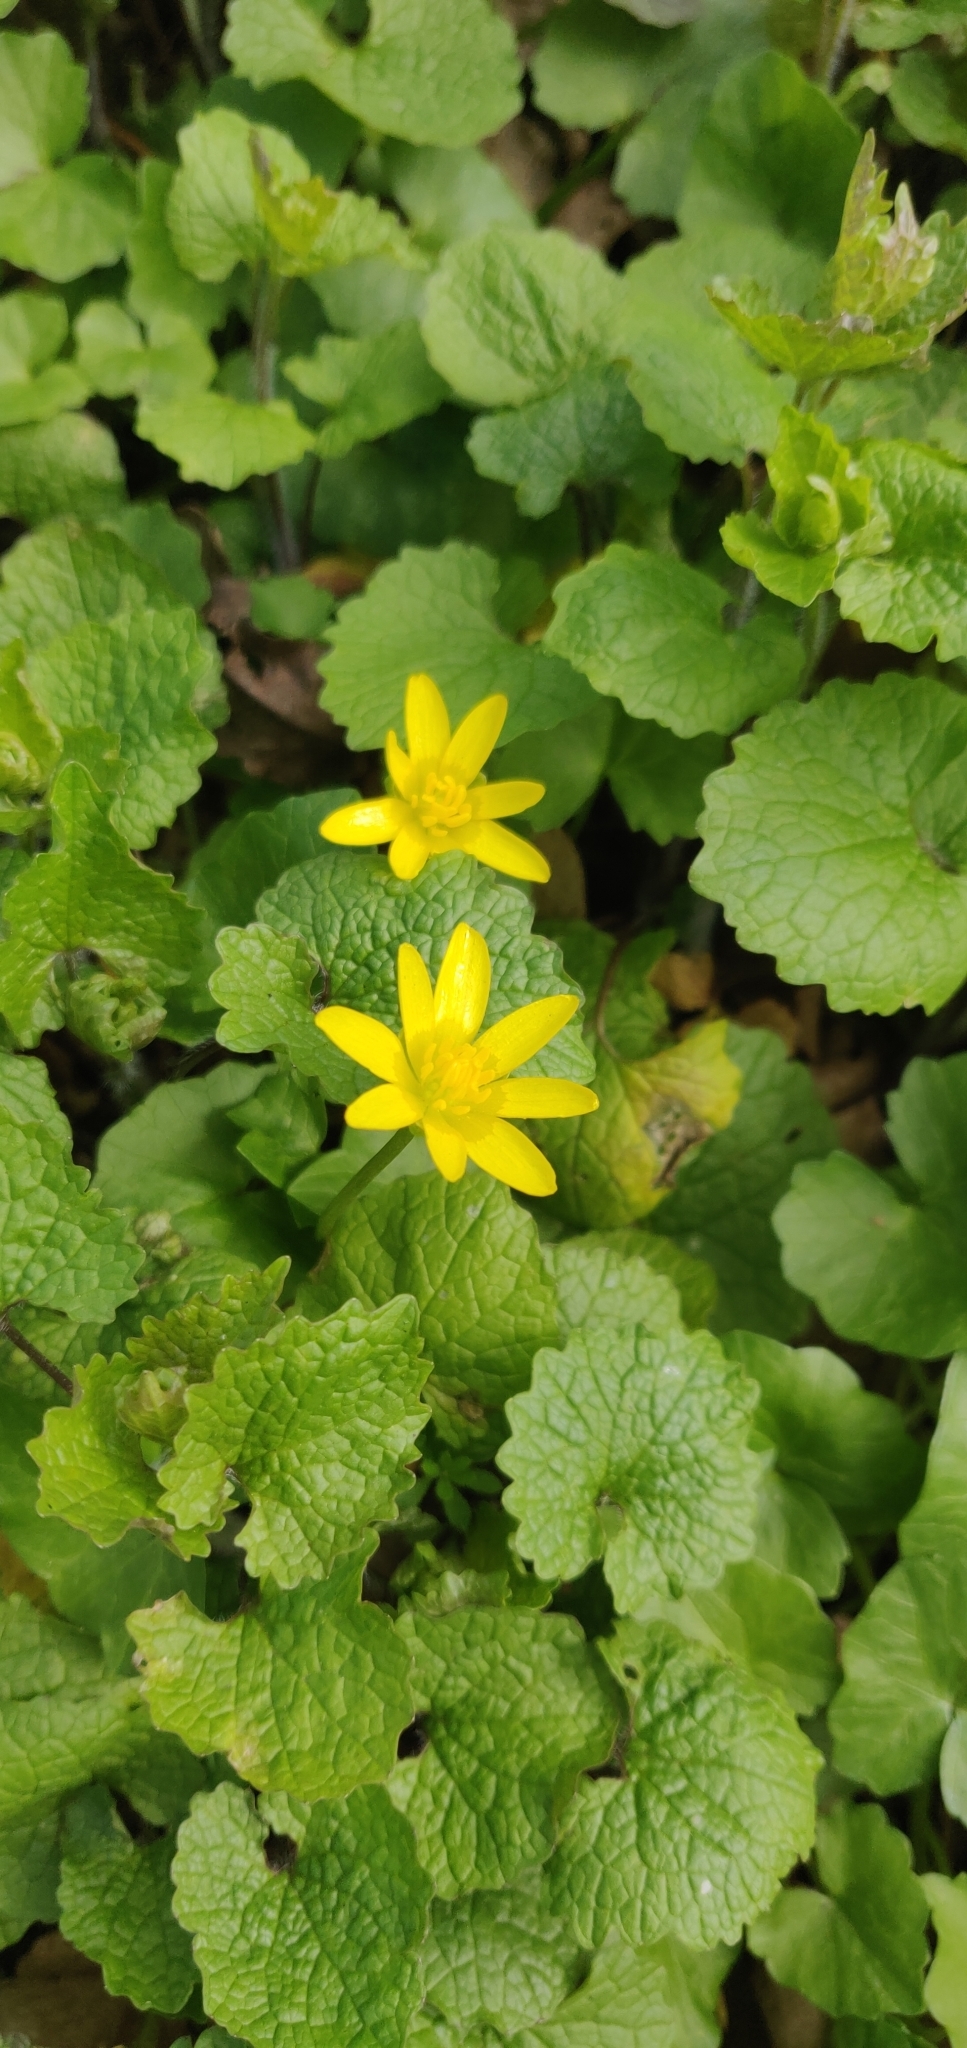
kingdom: Plantae
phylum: Tracheophyta
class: Magnoliopsida
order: Ranunculales
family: Ranunculaceae
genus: Ficaria
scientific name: Ficaria verna
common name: Lesser celandine
